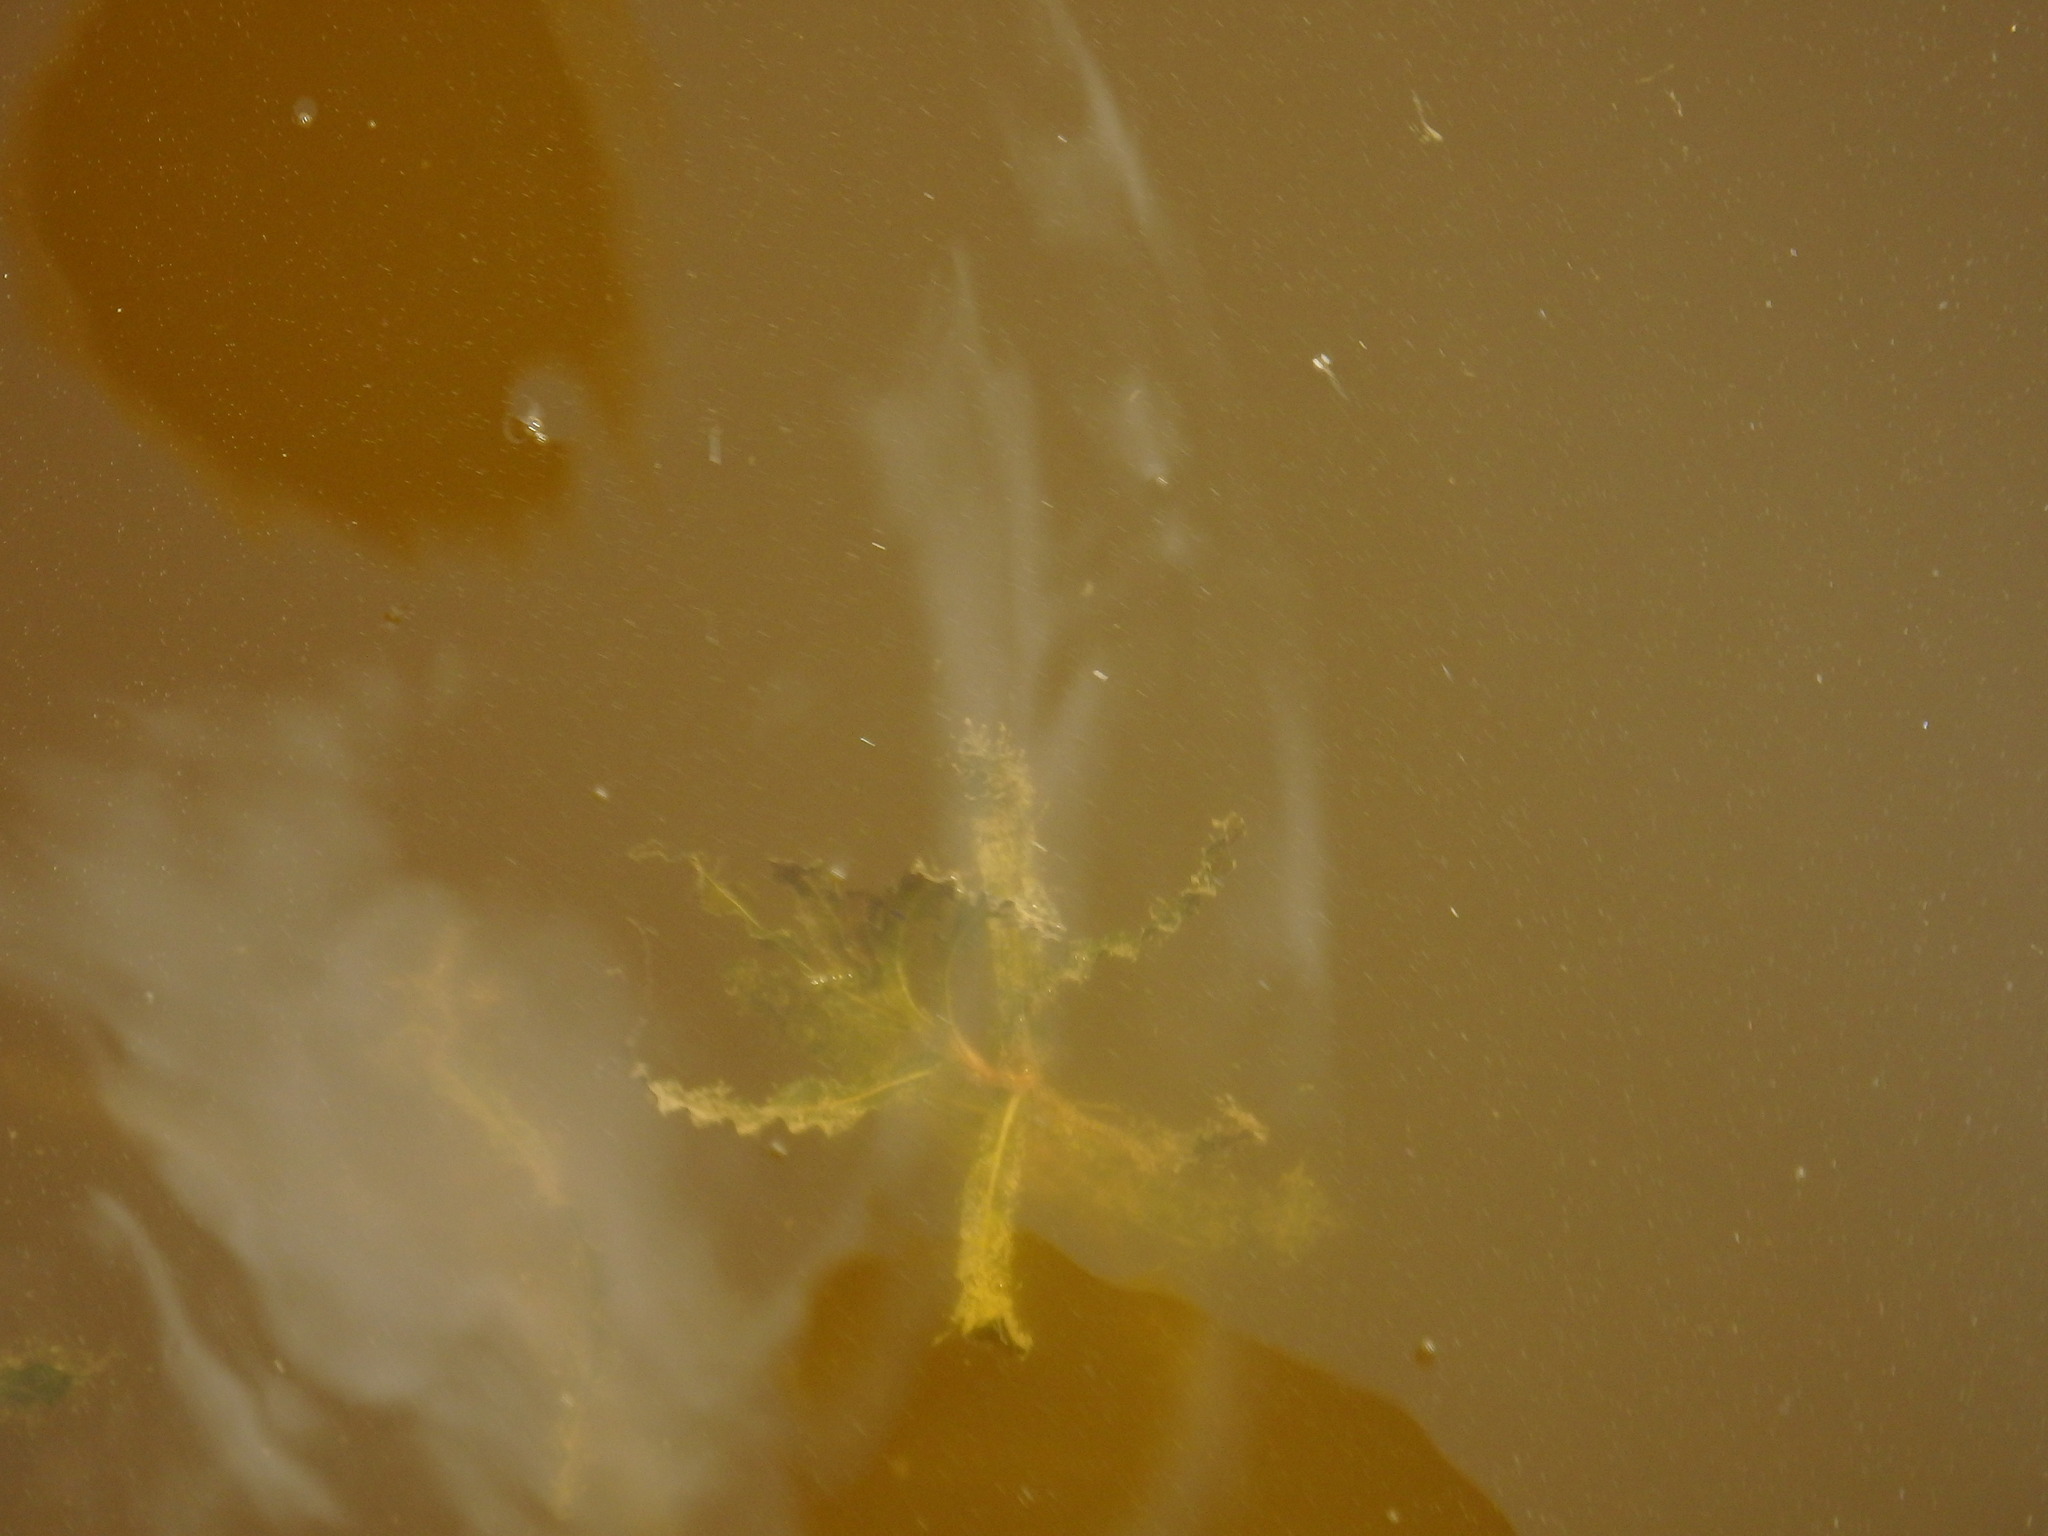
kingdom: Plantae
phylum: Tracheophyta
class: Liliopsida
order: Alismatales
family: Potamogetonaceae
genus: Potamogeton
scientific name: Potamogeton crispus
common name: Curled pondweed
